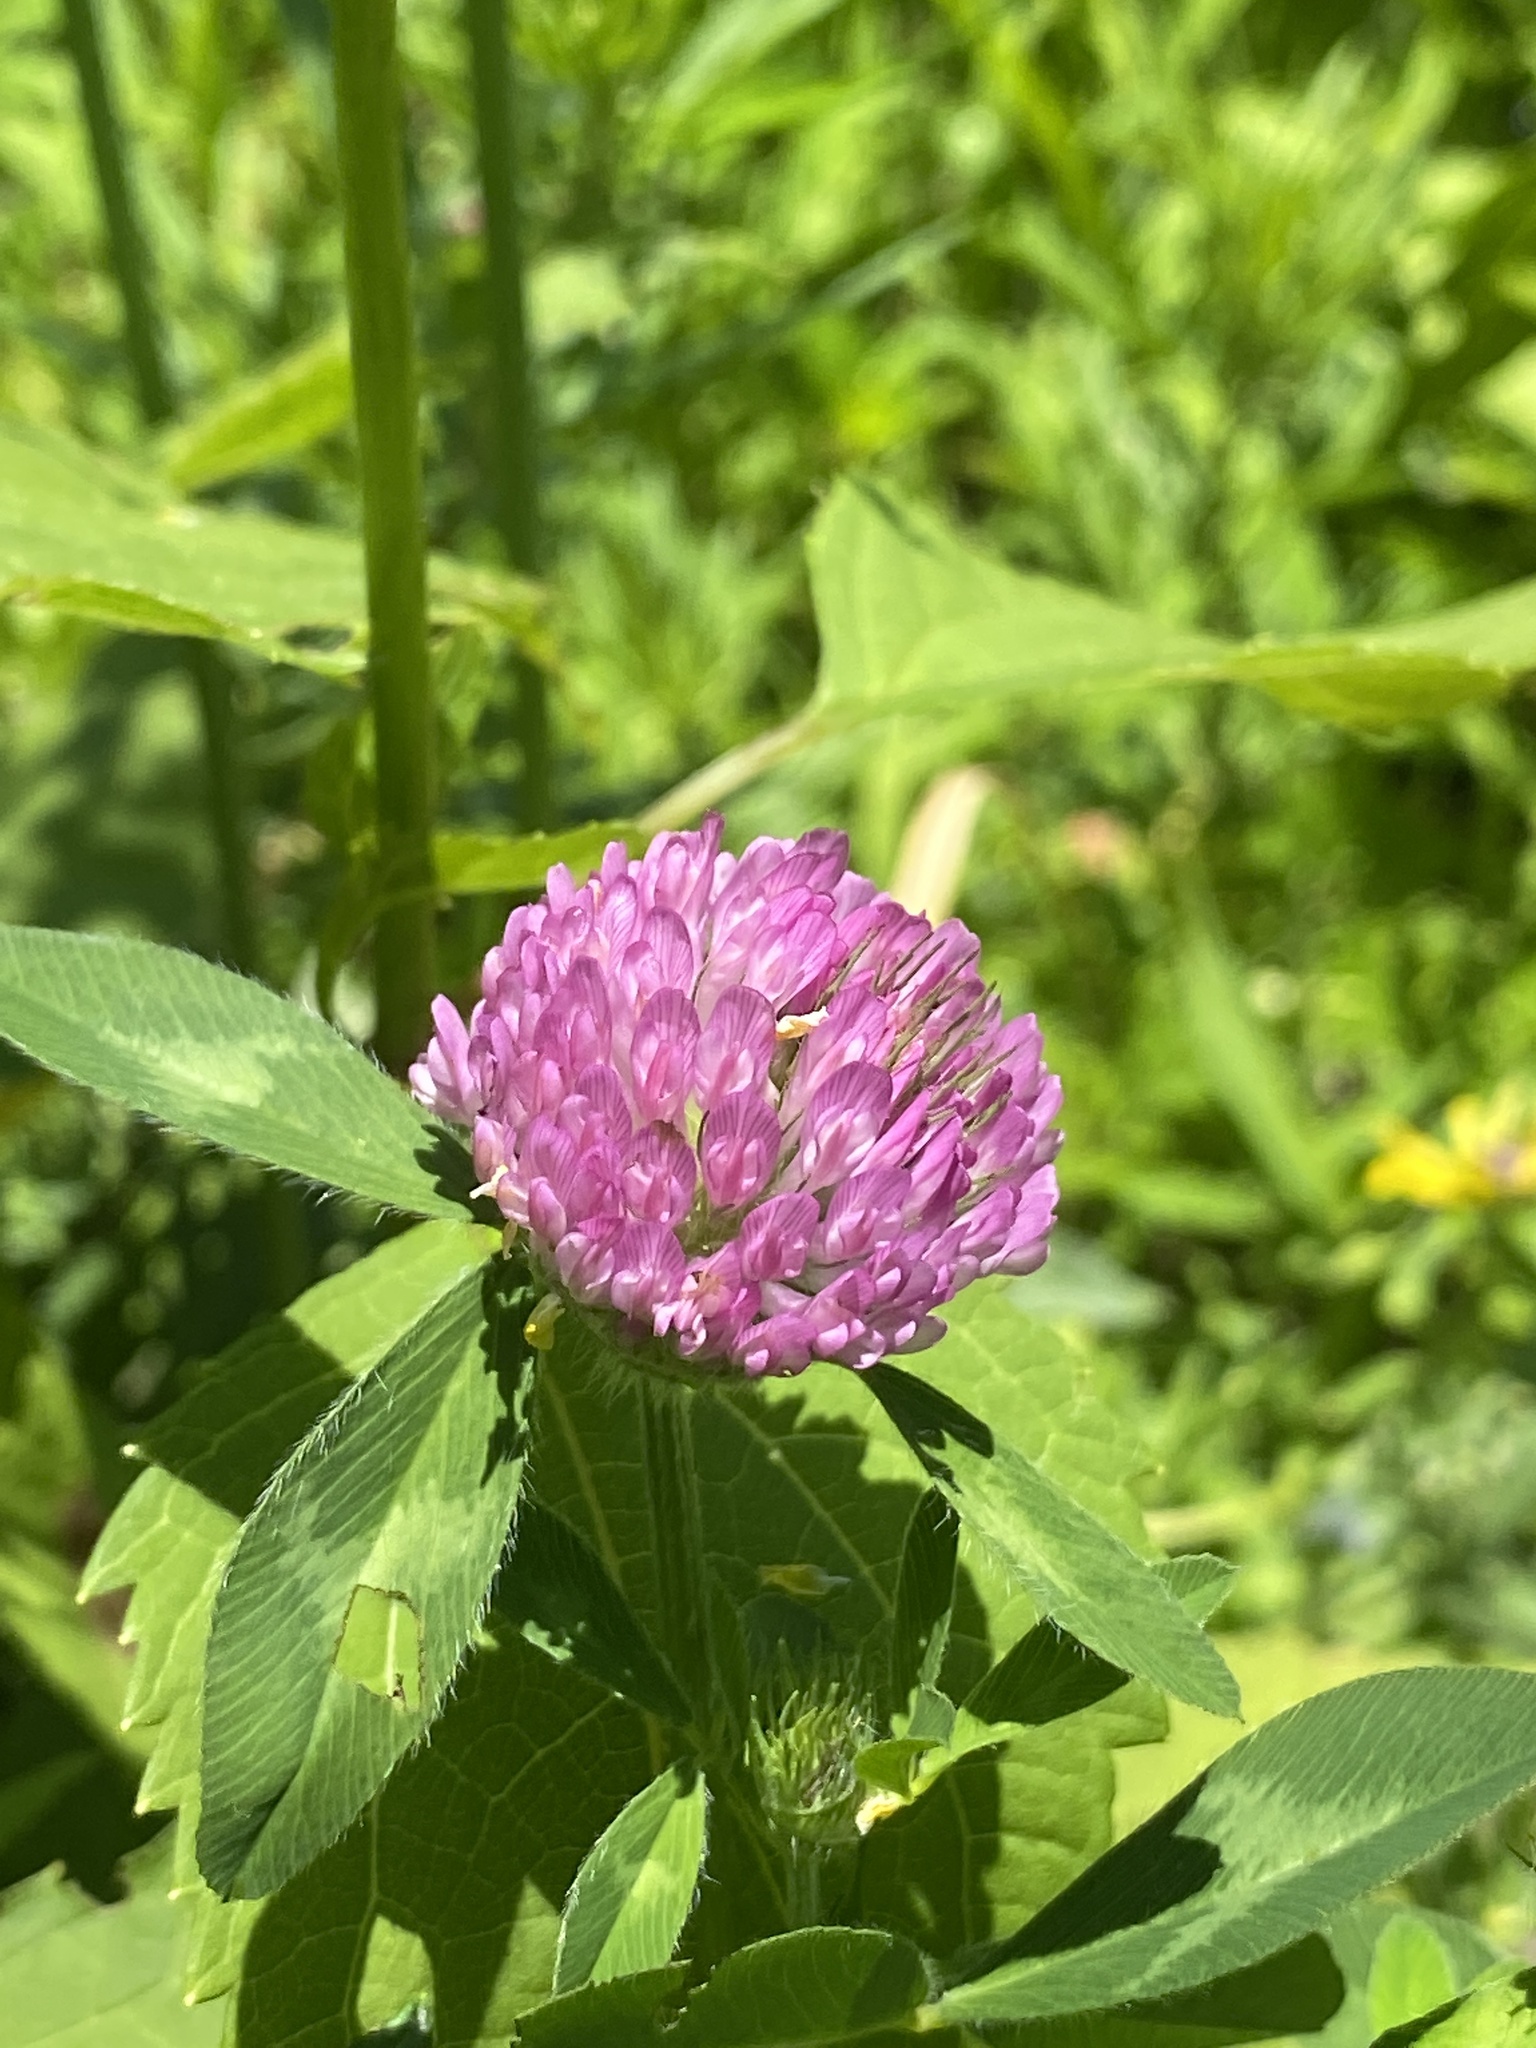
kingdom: Plantae
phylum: Tracheophyta
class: Magnoliopsida
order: Fabales
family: Fabaceae
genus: Trifolium
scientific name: Trifolium pratense
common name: Red clover
